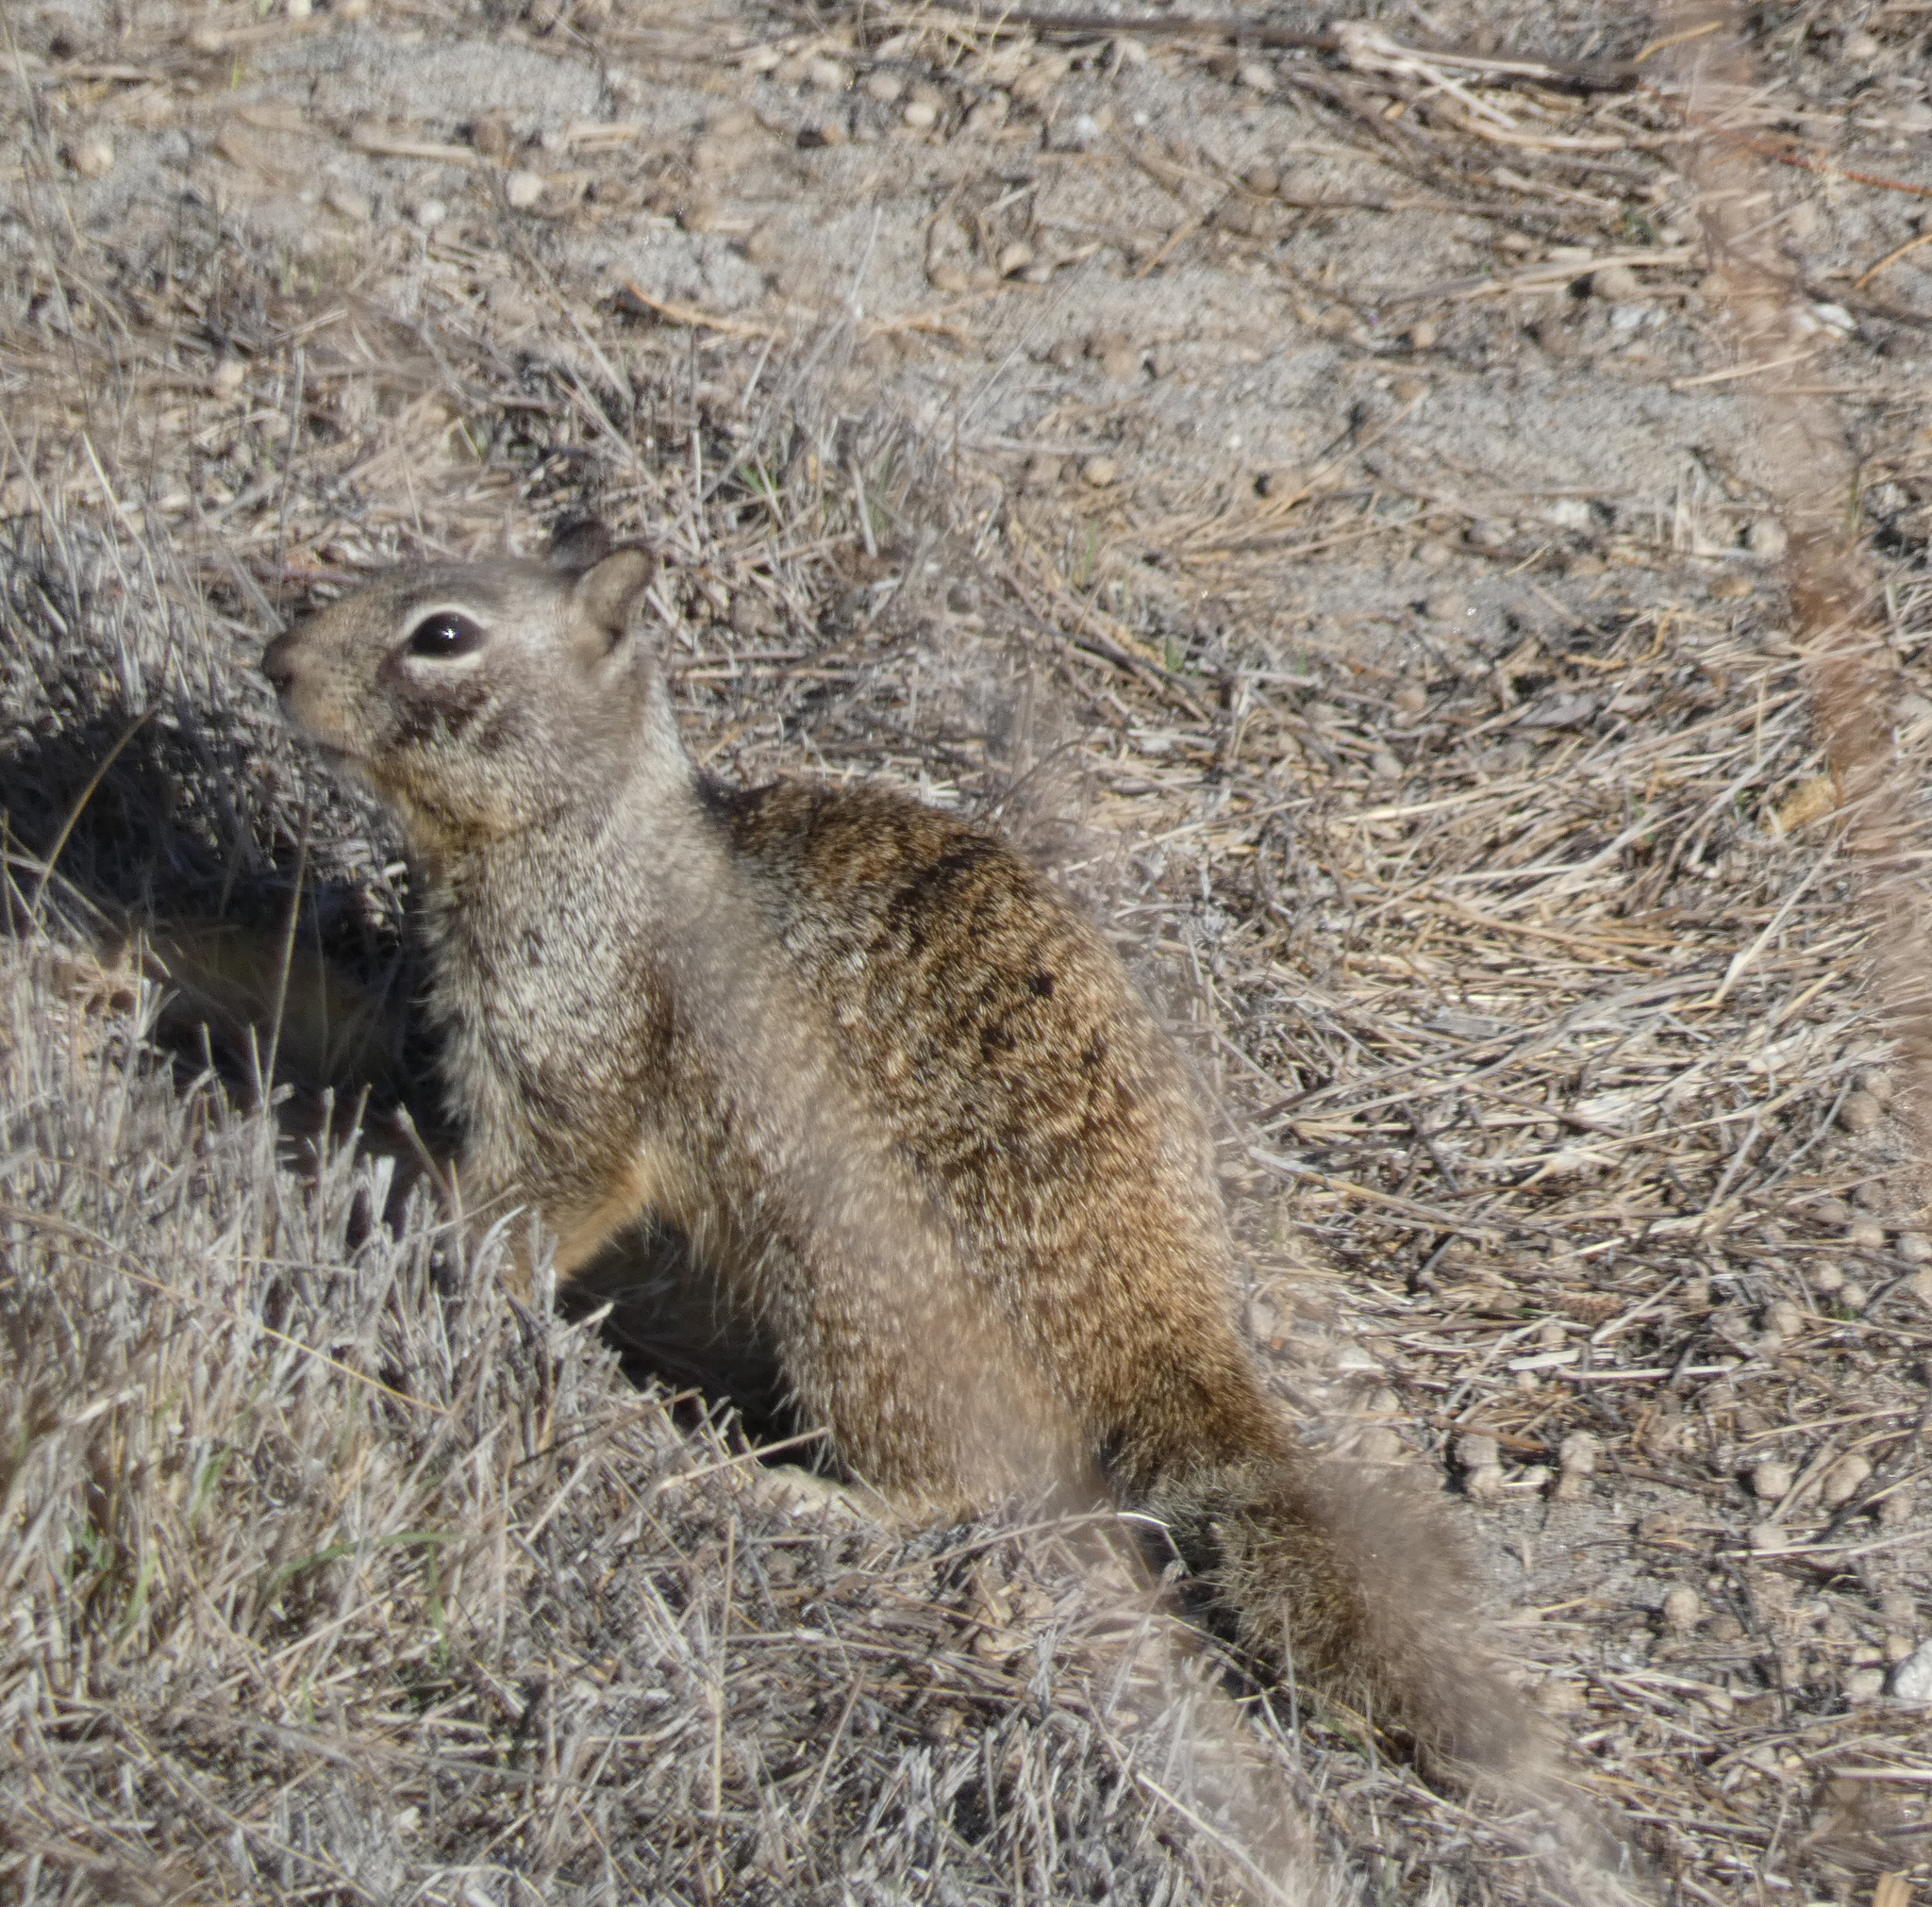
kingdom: Animalia
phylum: Chordata
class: Mammalia
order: Rodentia
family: Sciuridae
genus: Otospermophilus
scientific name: Otospermophilus beecheyi
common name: California ground squirrel
